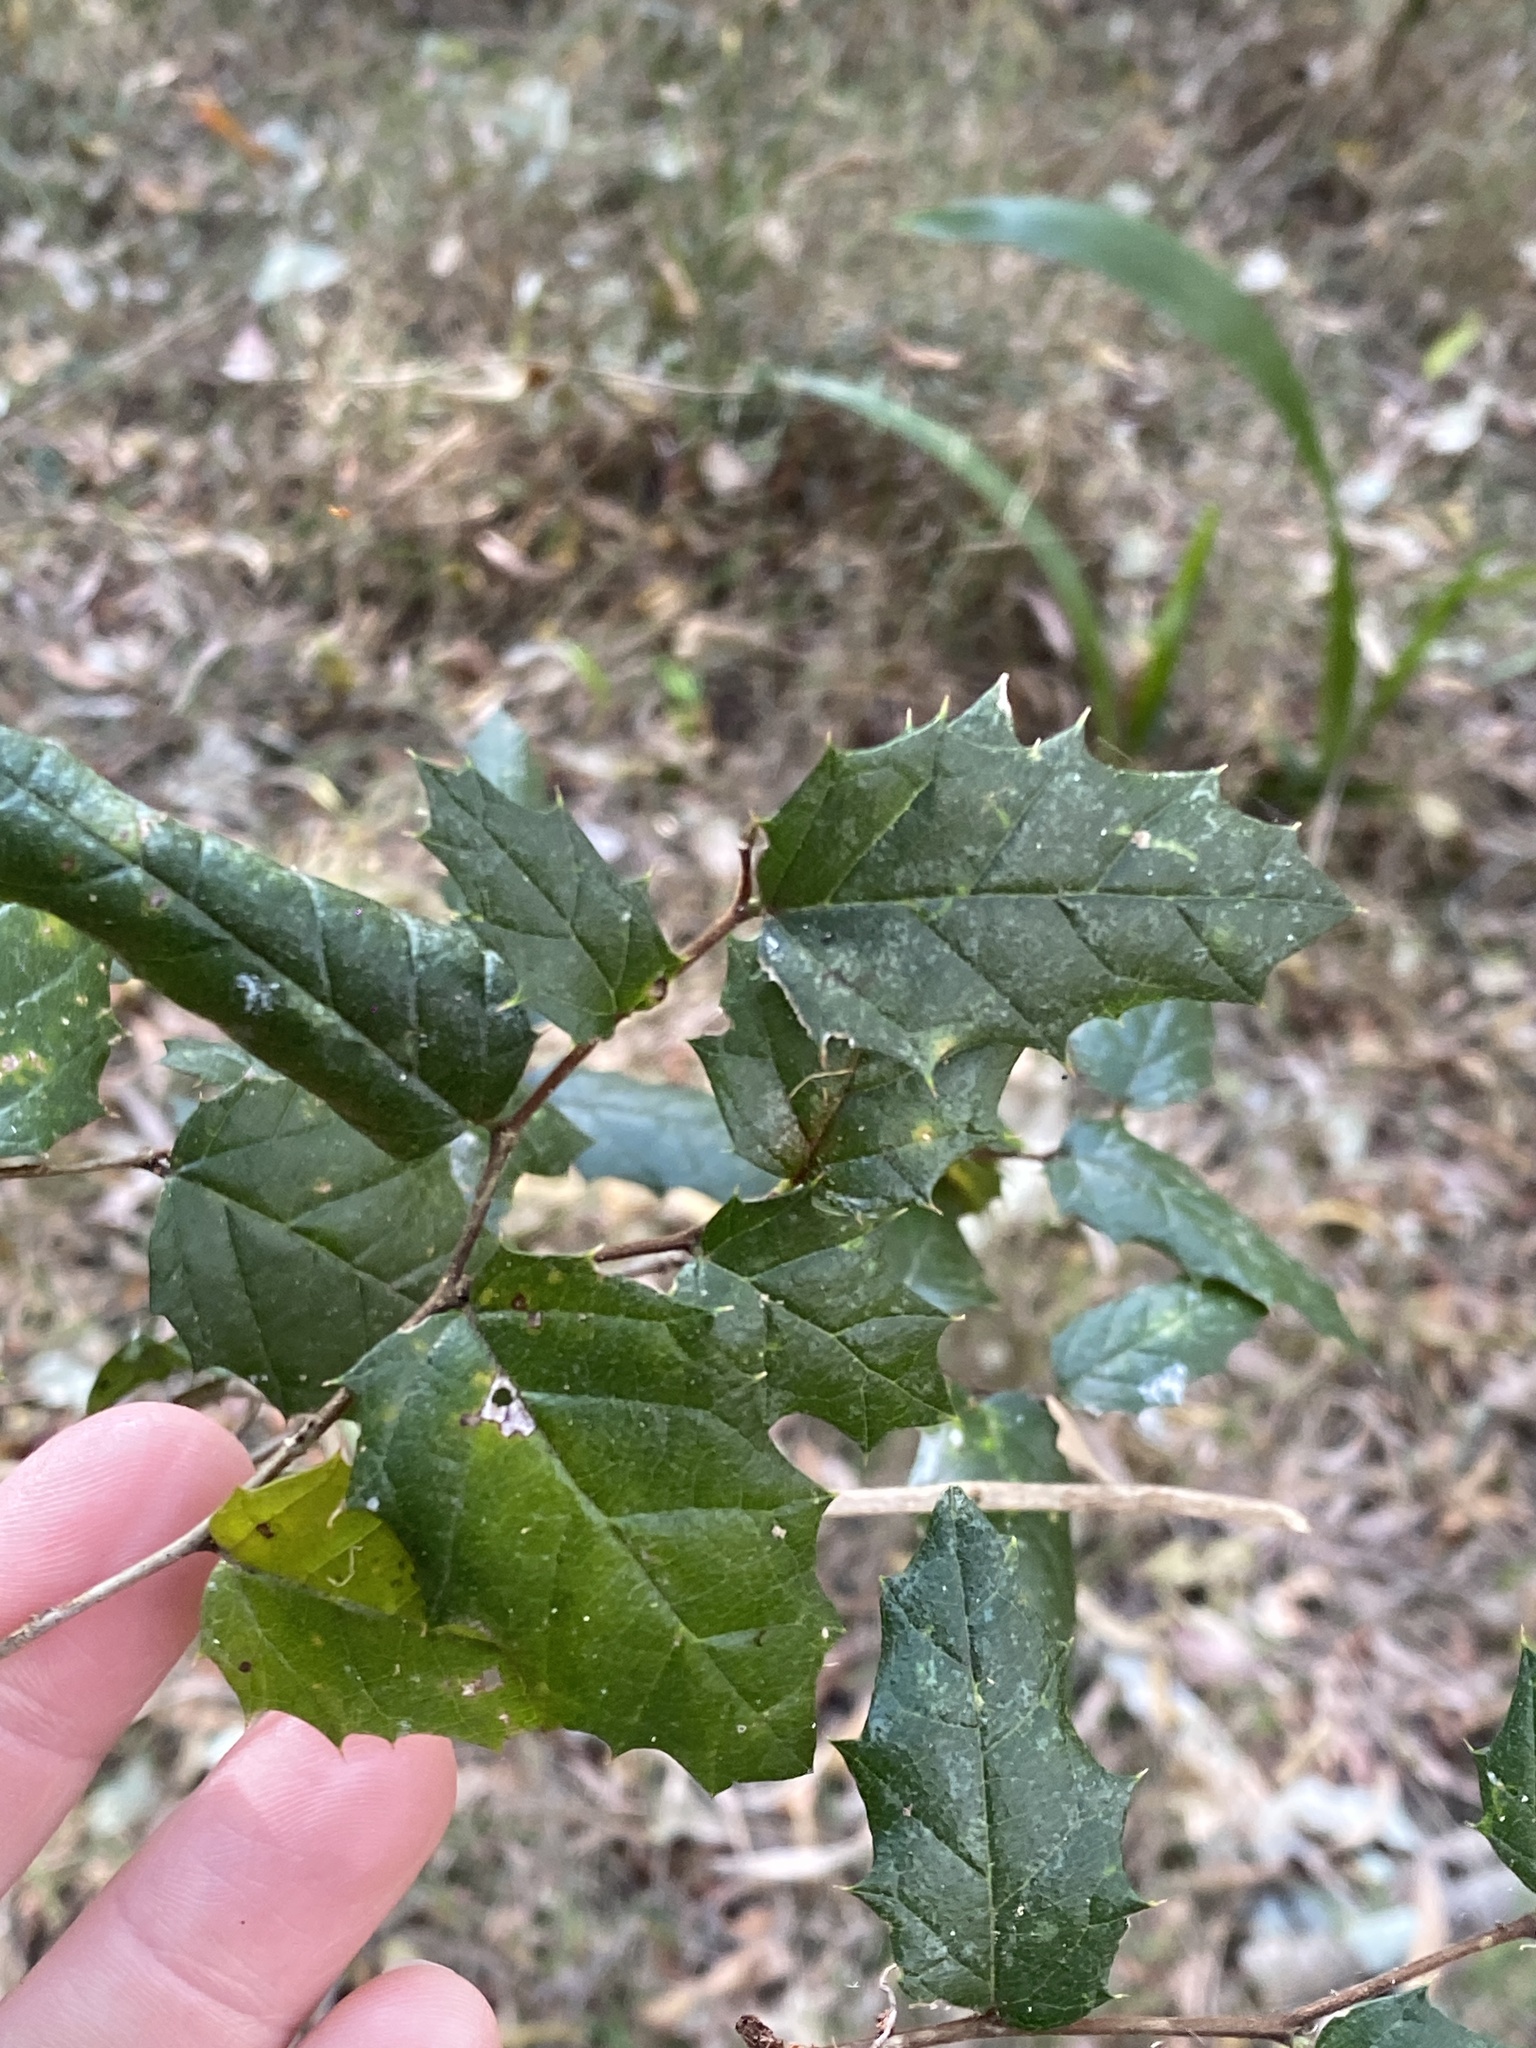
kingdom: Plantae
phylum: Tracheophyta
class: Magnoliopsida
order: Rosales
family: Cannabaceae
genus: Aphananthe
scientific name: Aphananthe philippinensis
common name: Wild holly
